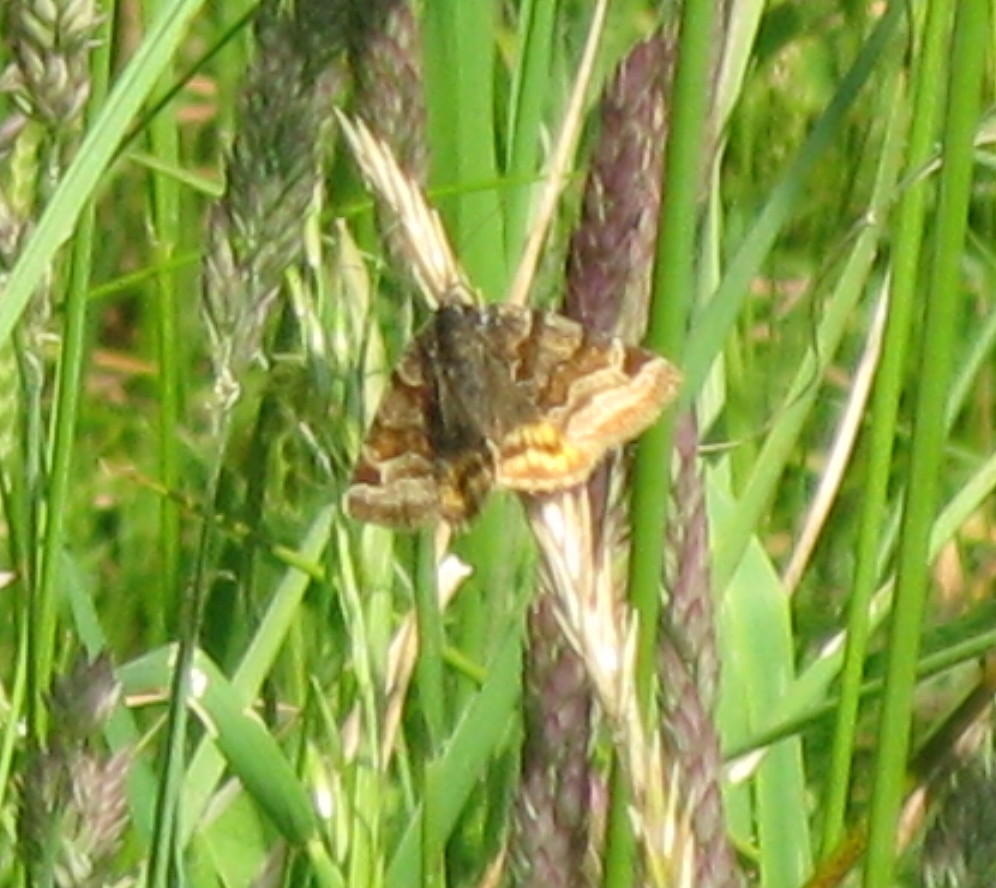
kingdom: Animalia
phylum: Arthropoda
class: Insecta
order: Lepidoptera
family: Erebidae
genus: Euclidia
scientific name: Euclidia glyphica
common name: Burnet companion
